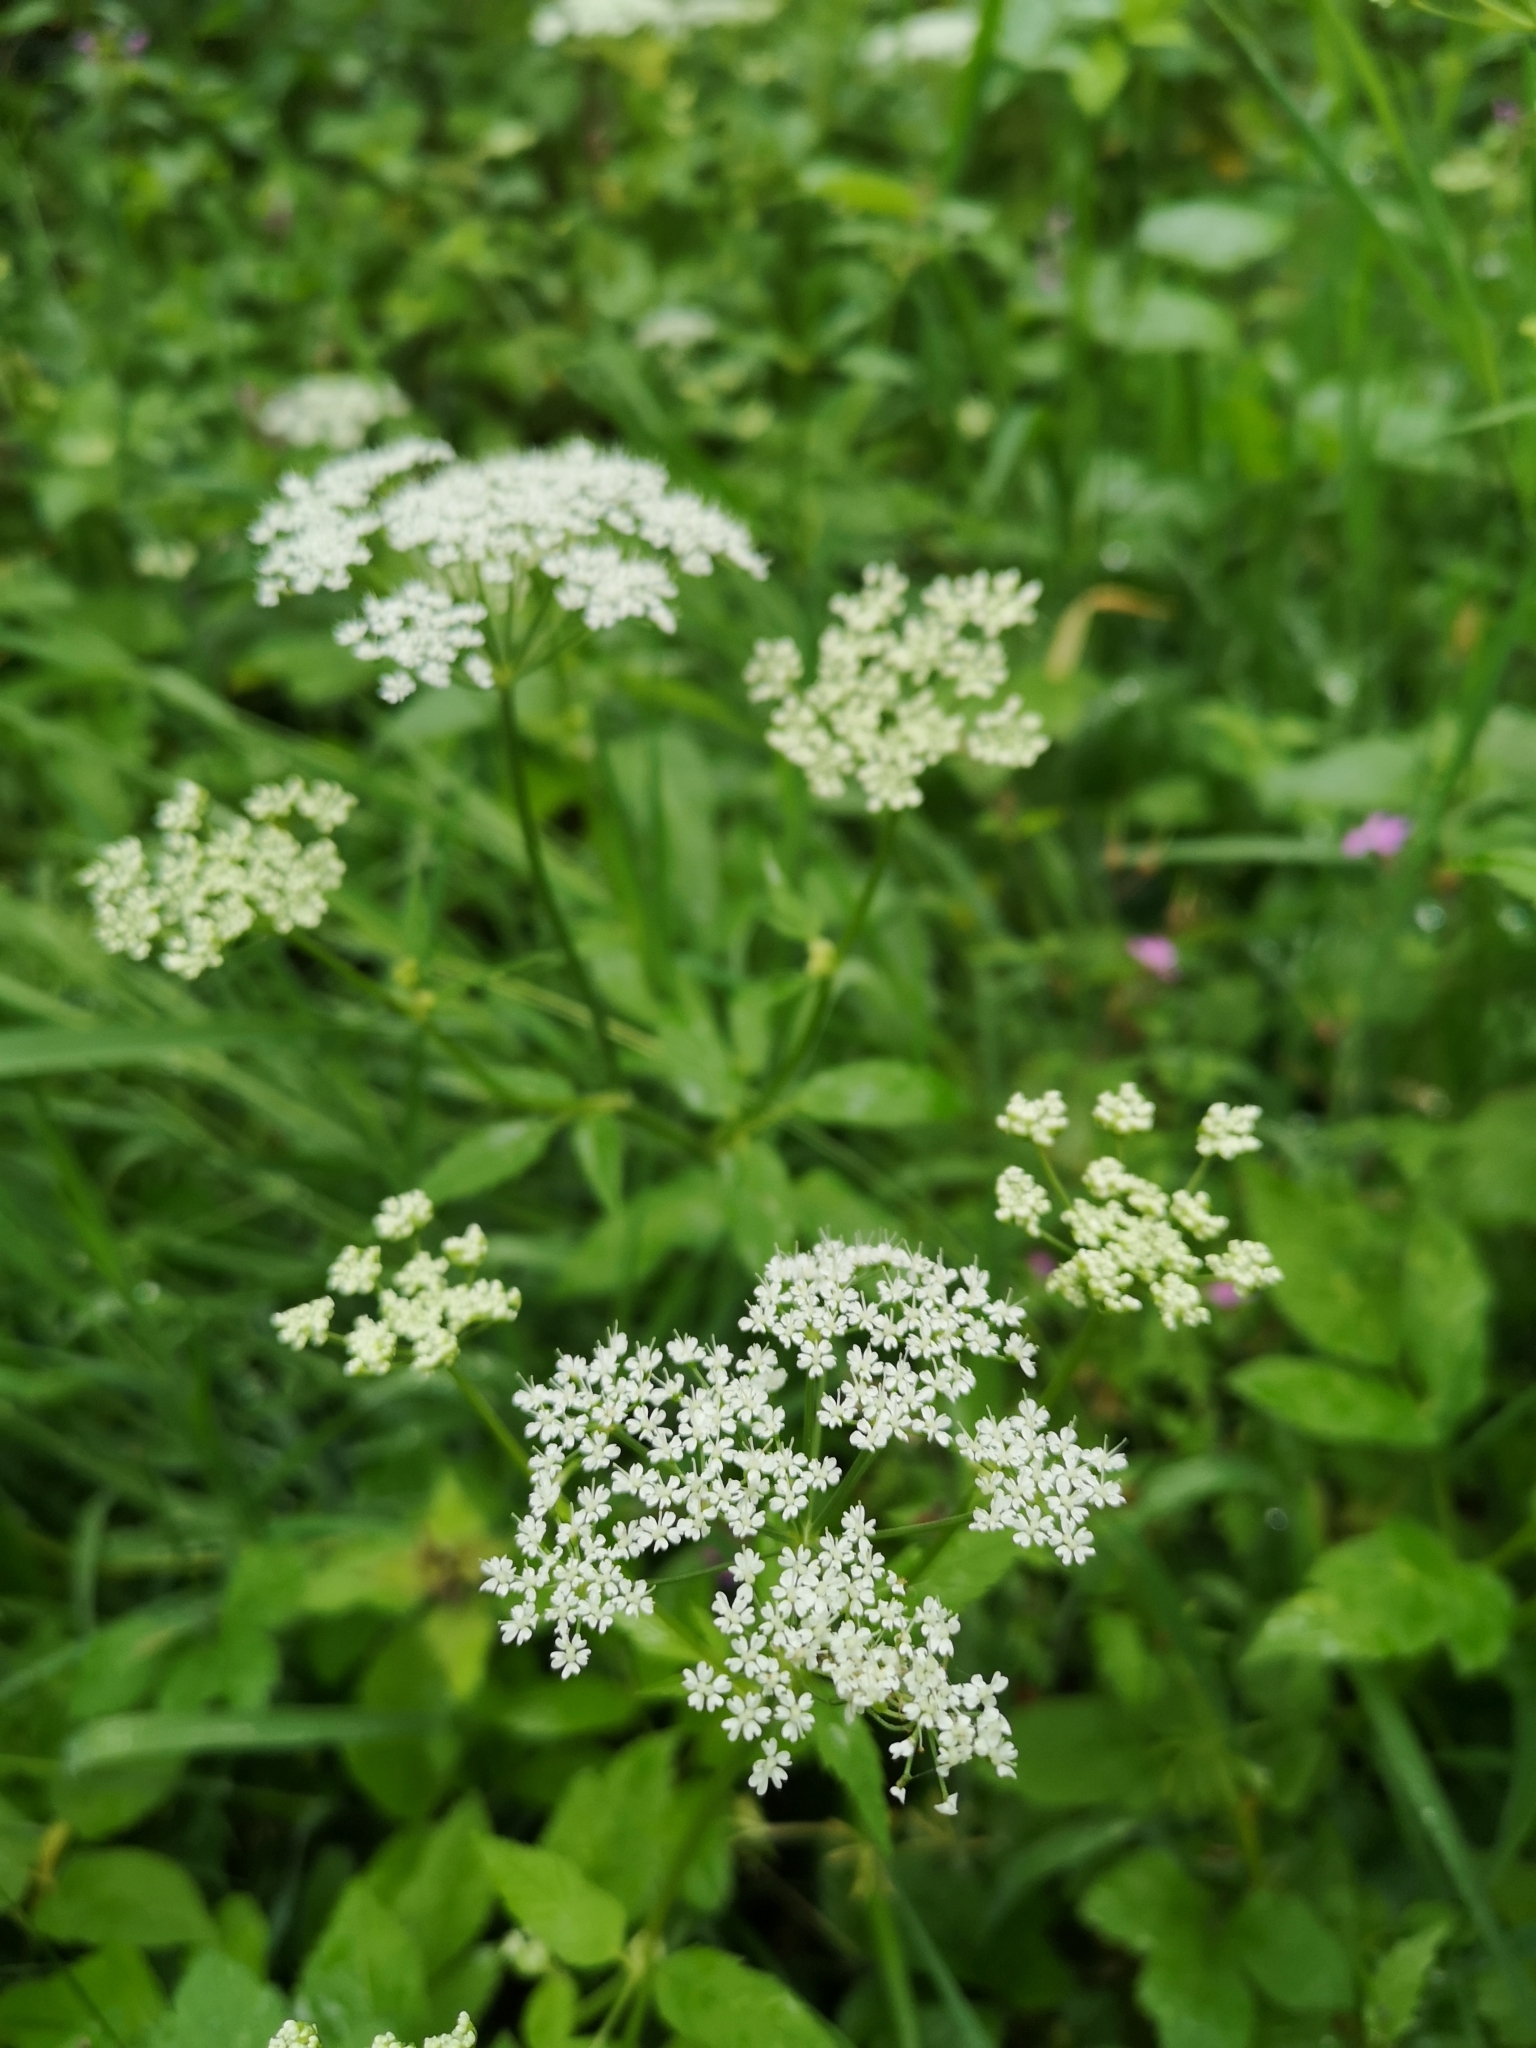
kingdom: Plantae
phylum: Tracheophyta
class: Magnoliopsida
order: Apiales
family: Apiaceae
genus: Aegopodium
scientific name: Aegopodium podagraria
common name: Ground-elder
